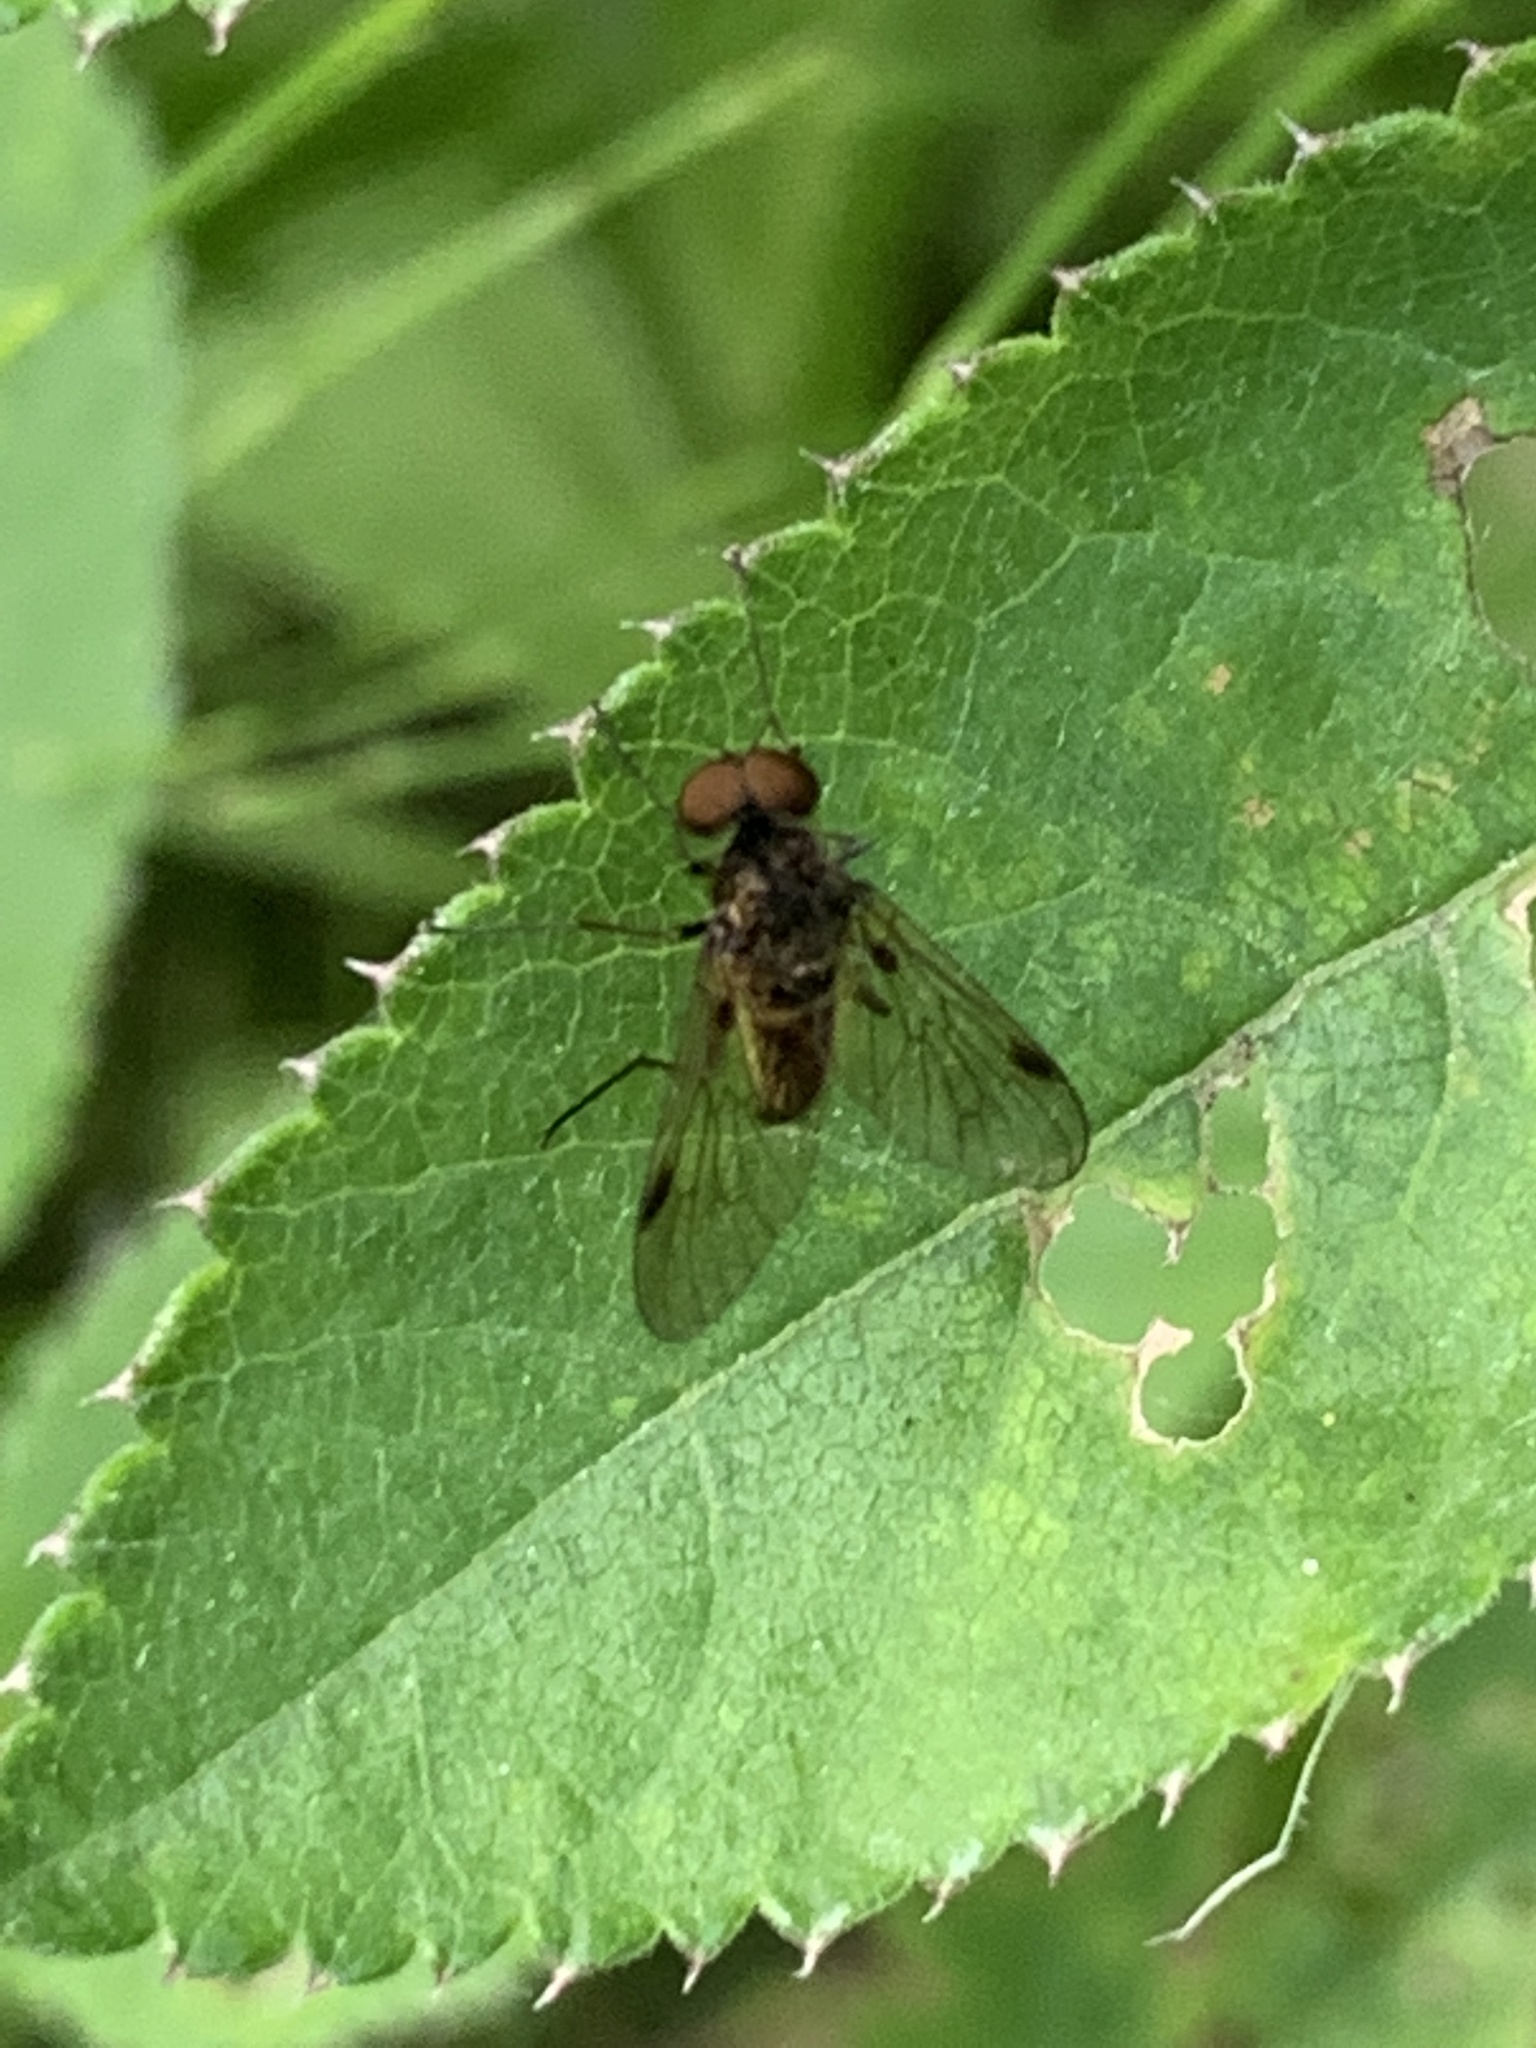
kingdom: Animalia
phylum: Arthropoda
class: Insecta
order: Diptera
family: Rhagionidae
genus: Chrysopilus
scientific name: Chrysopilus cristatus
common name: Black snipefly
